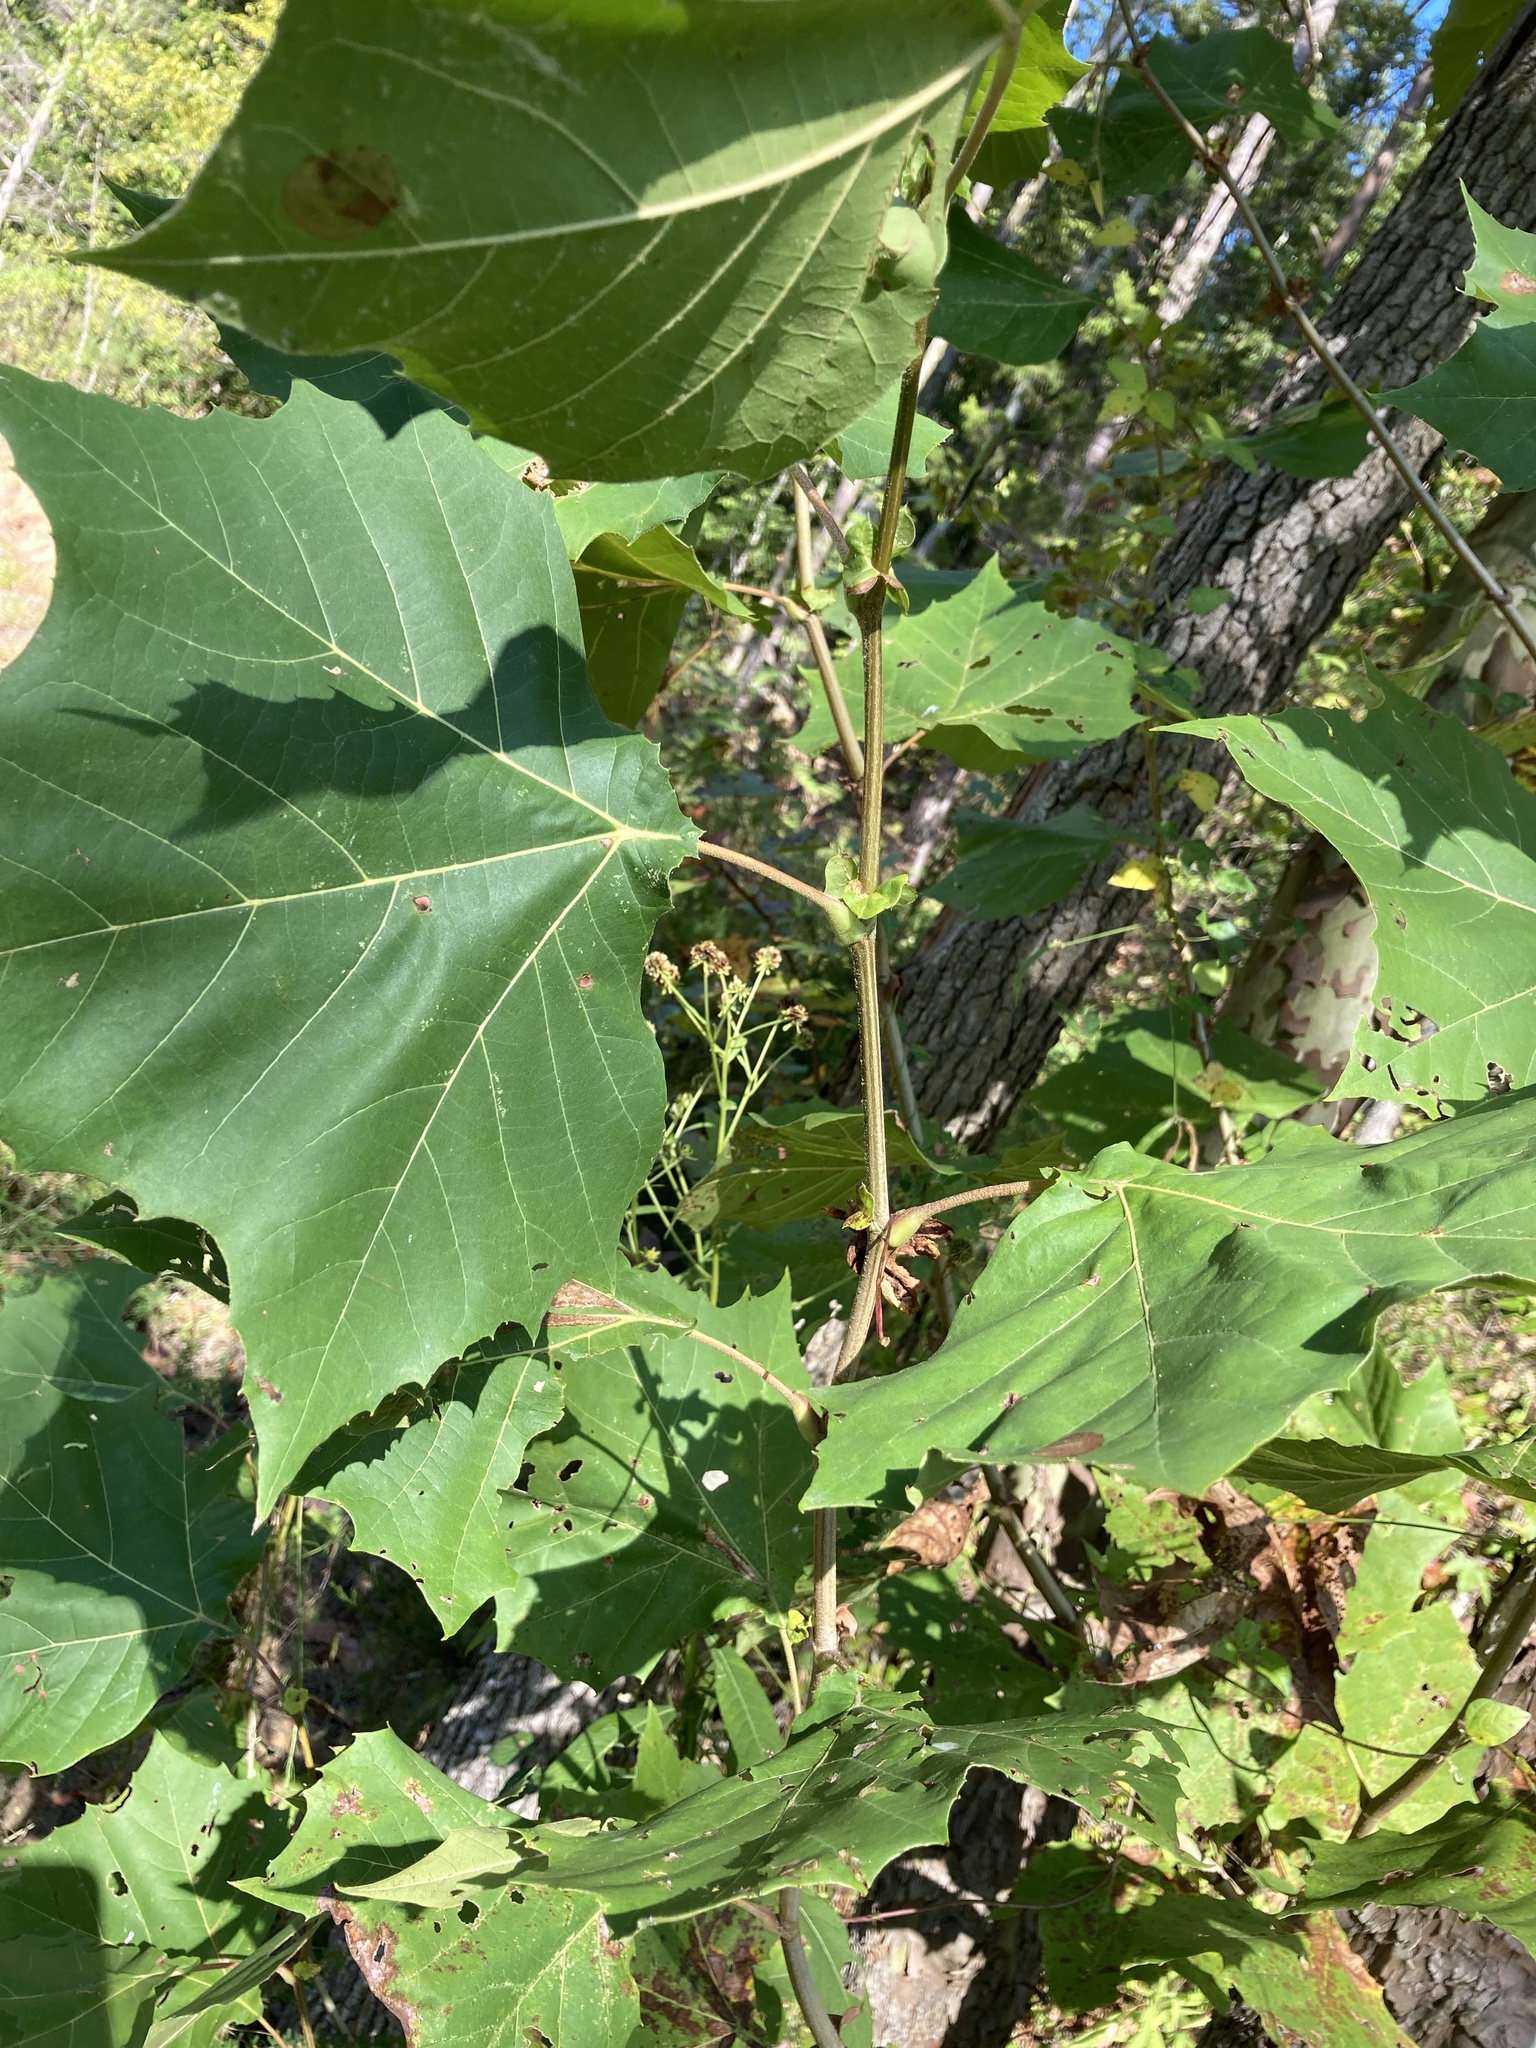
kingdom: Plantae
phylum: Tracheophyta
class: Magnoliopsida
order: Proteales
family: Platanaceae
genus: Platanus
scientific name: Platanus occidentalis
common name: American sycamore
